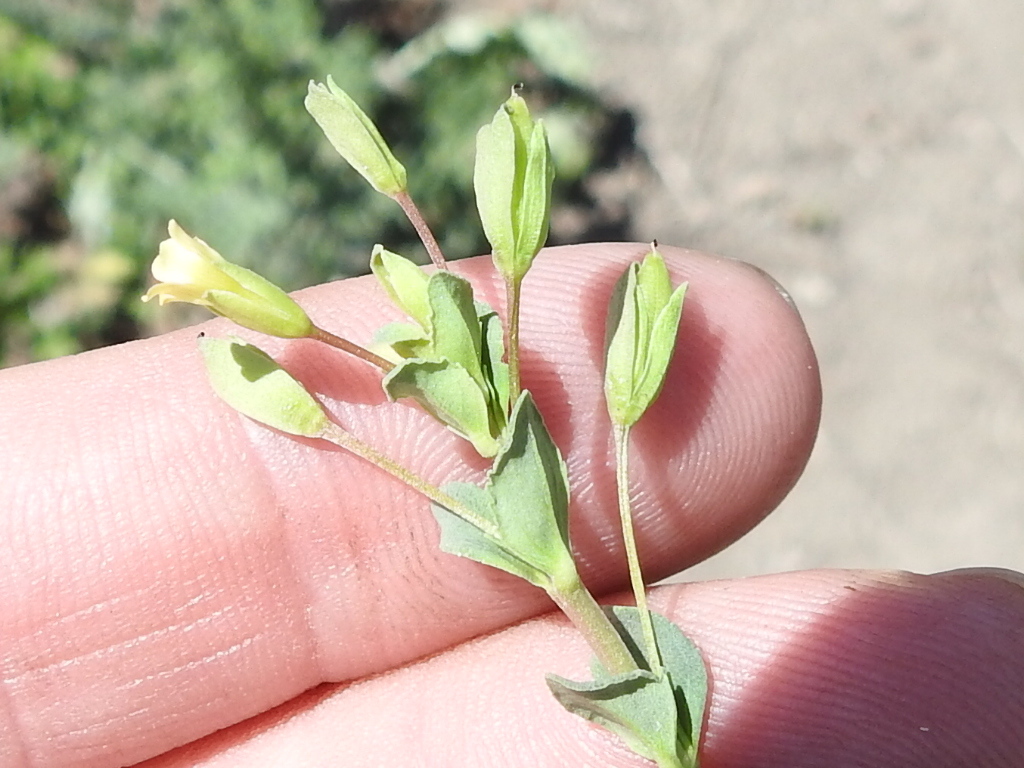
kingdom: Plantae
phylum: Tracheophyta
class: Magnoliopsida
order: Lamiales
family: Plantaginaceae
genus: Mecardonia
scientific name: Mecardonia procumbens
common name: Baby jump-up
